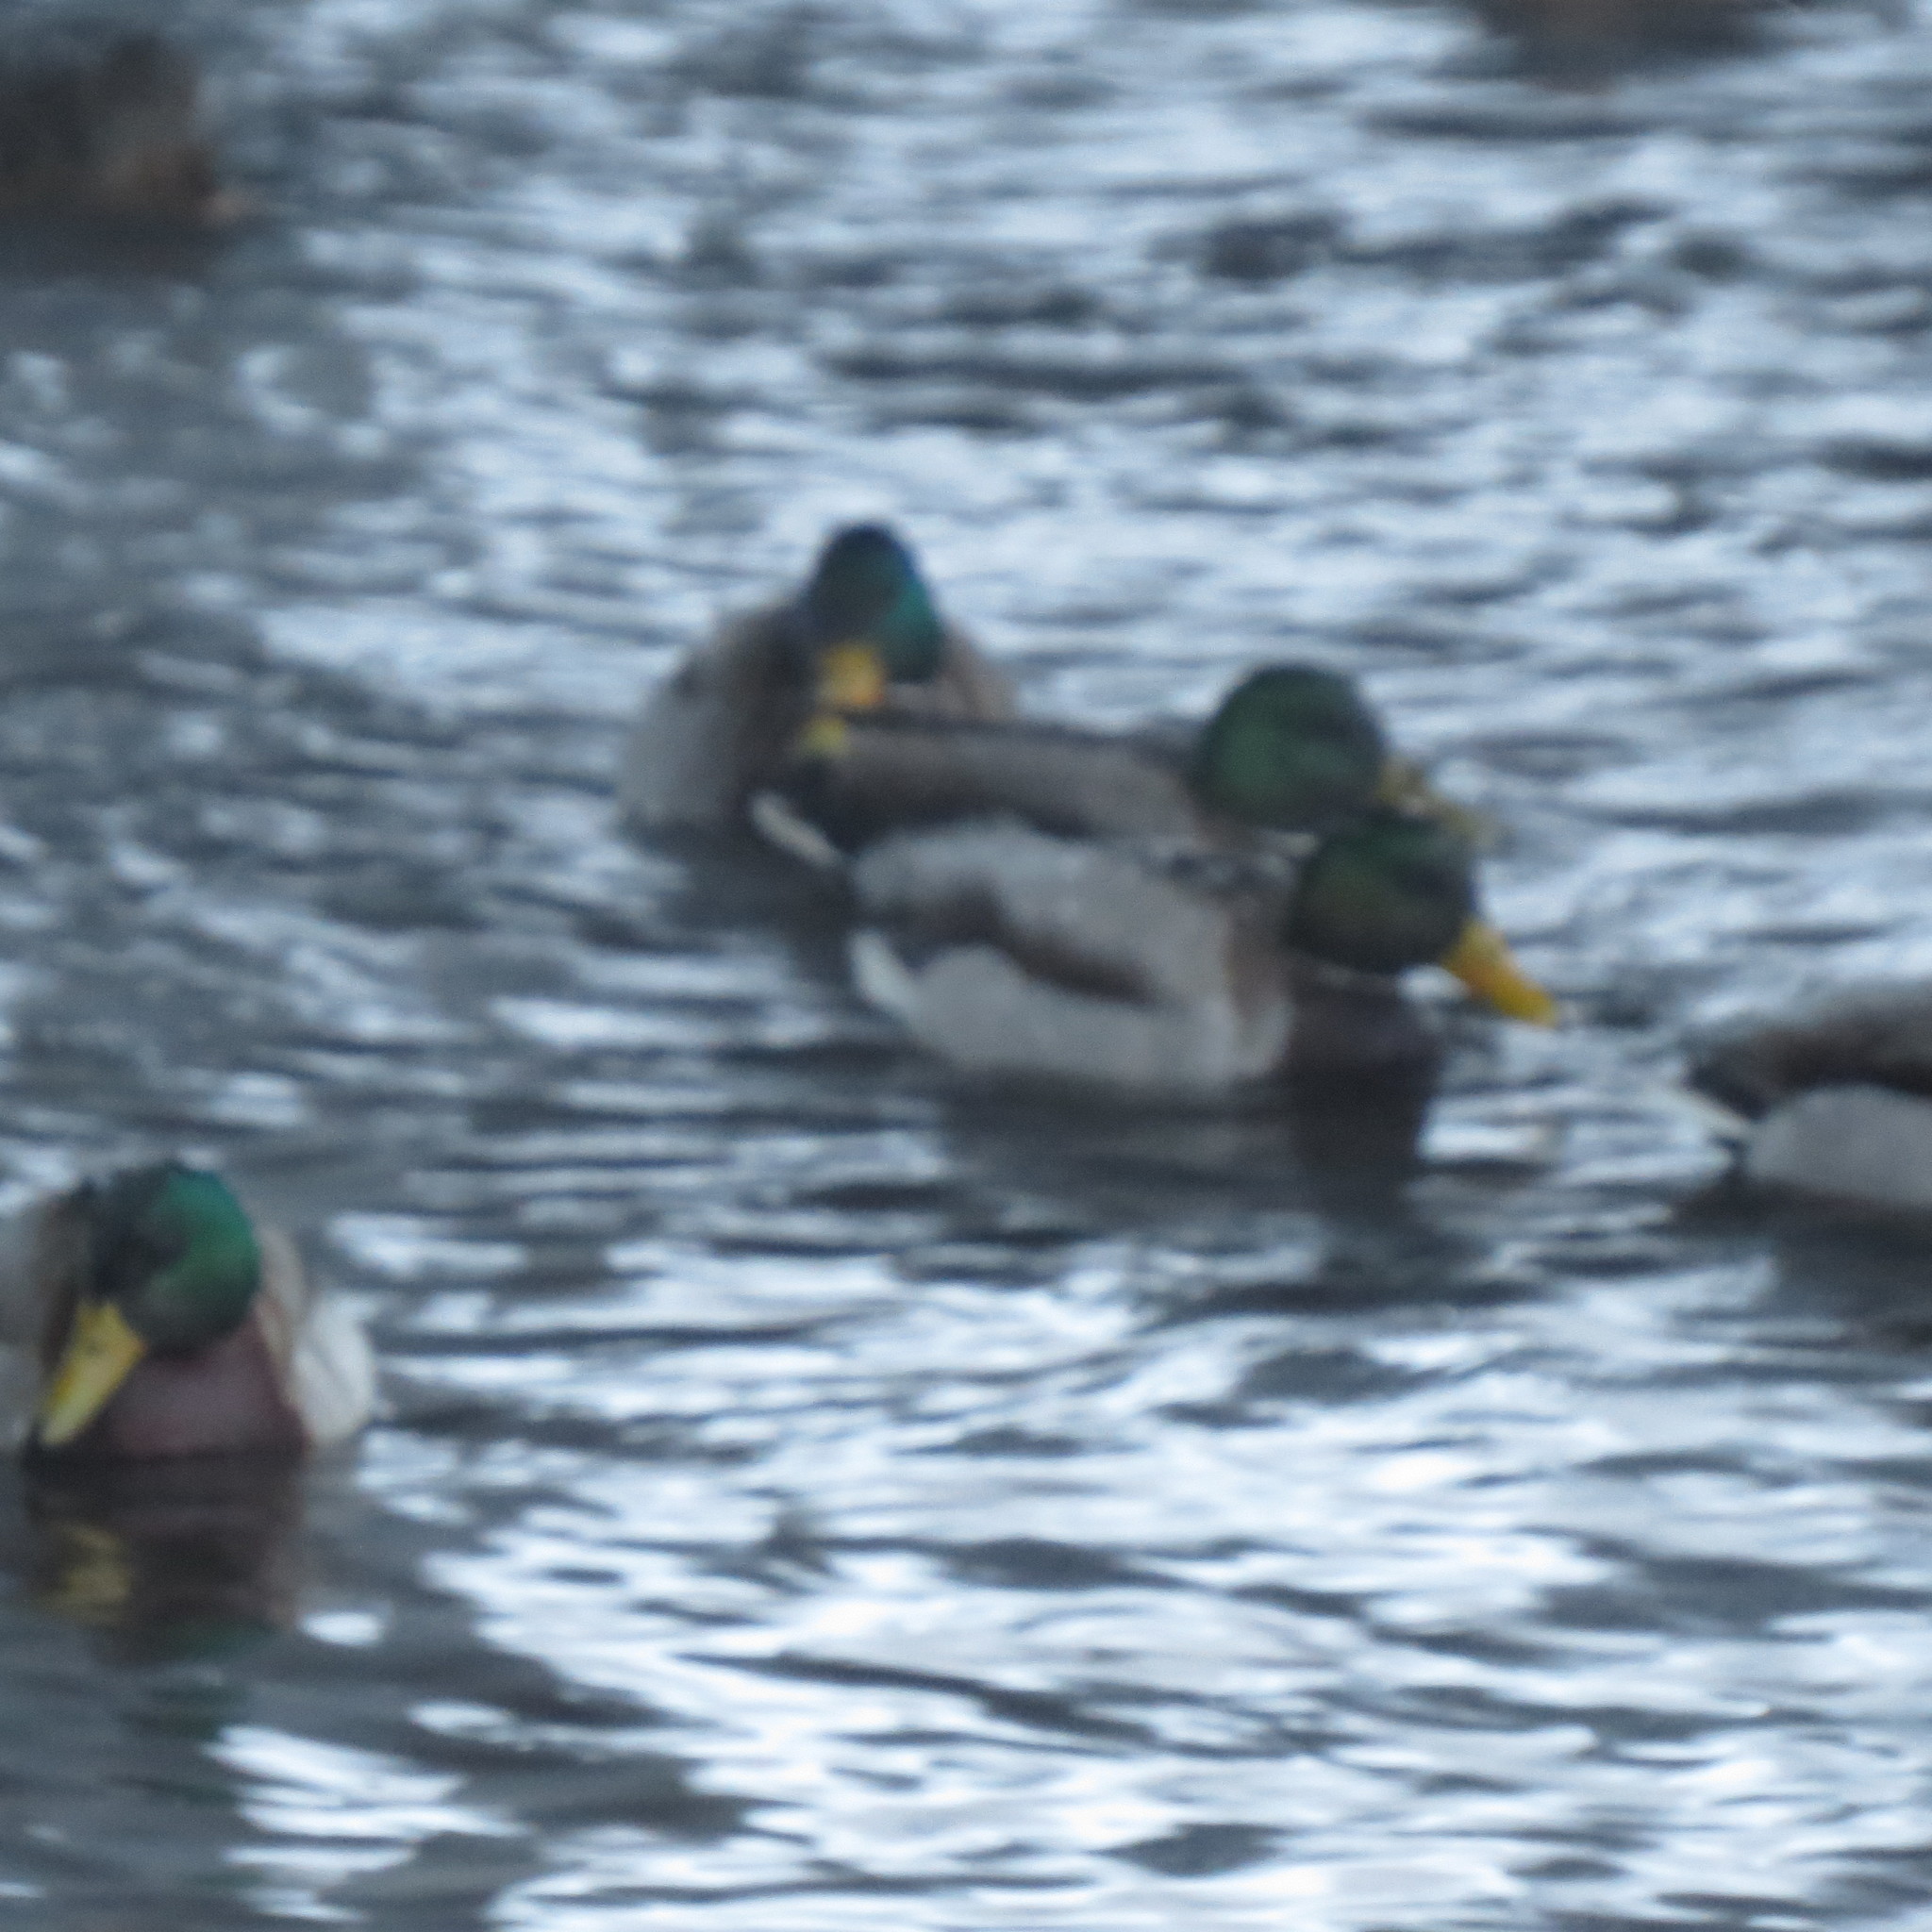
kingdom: Animalia
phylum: Chordata
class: Aves
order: Anseriformes
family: Anatidae
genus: Anas
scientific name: Anas platyrhynchos
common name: Mallard
